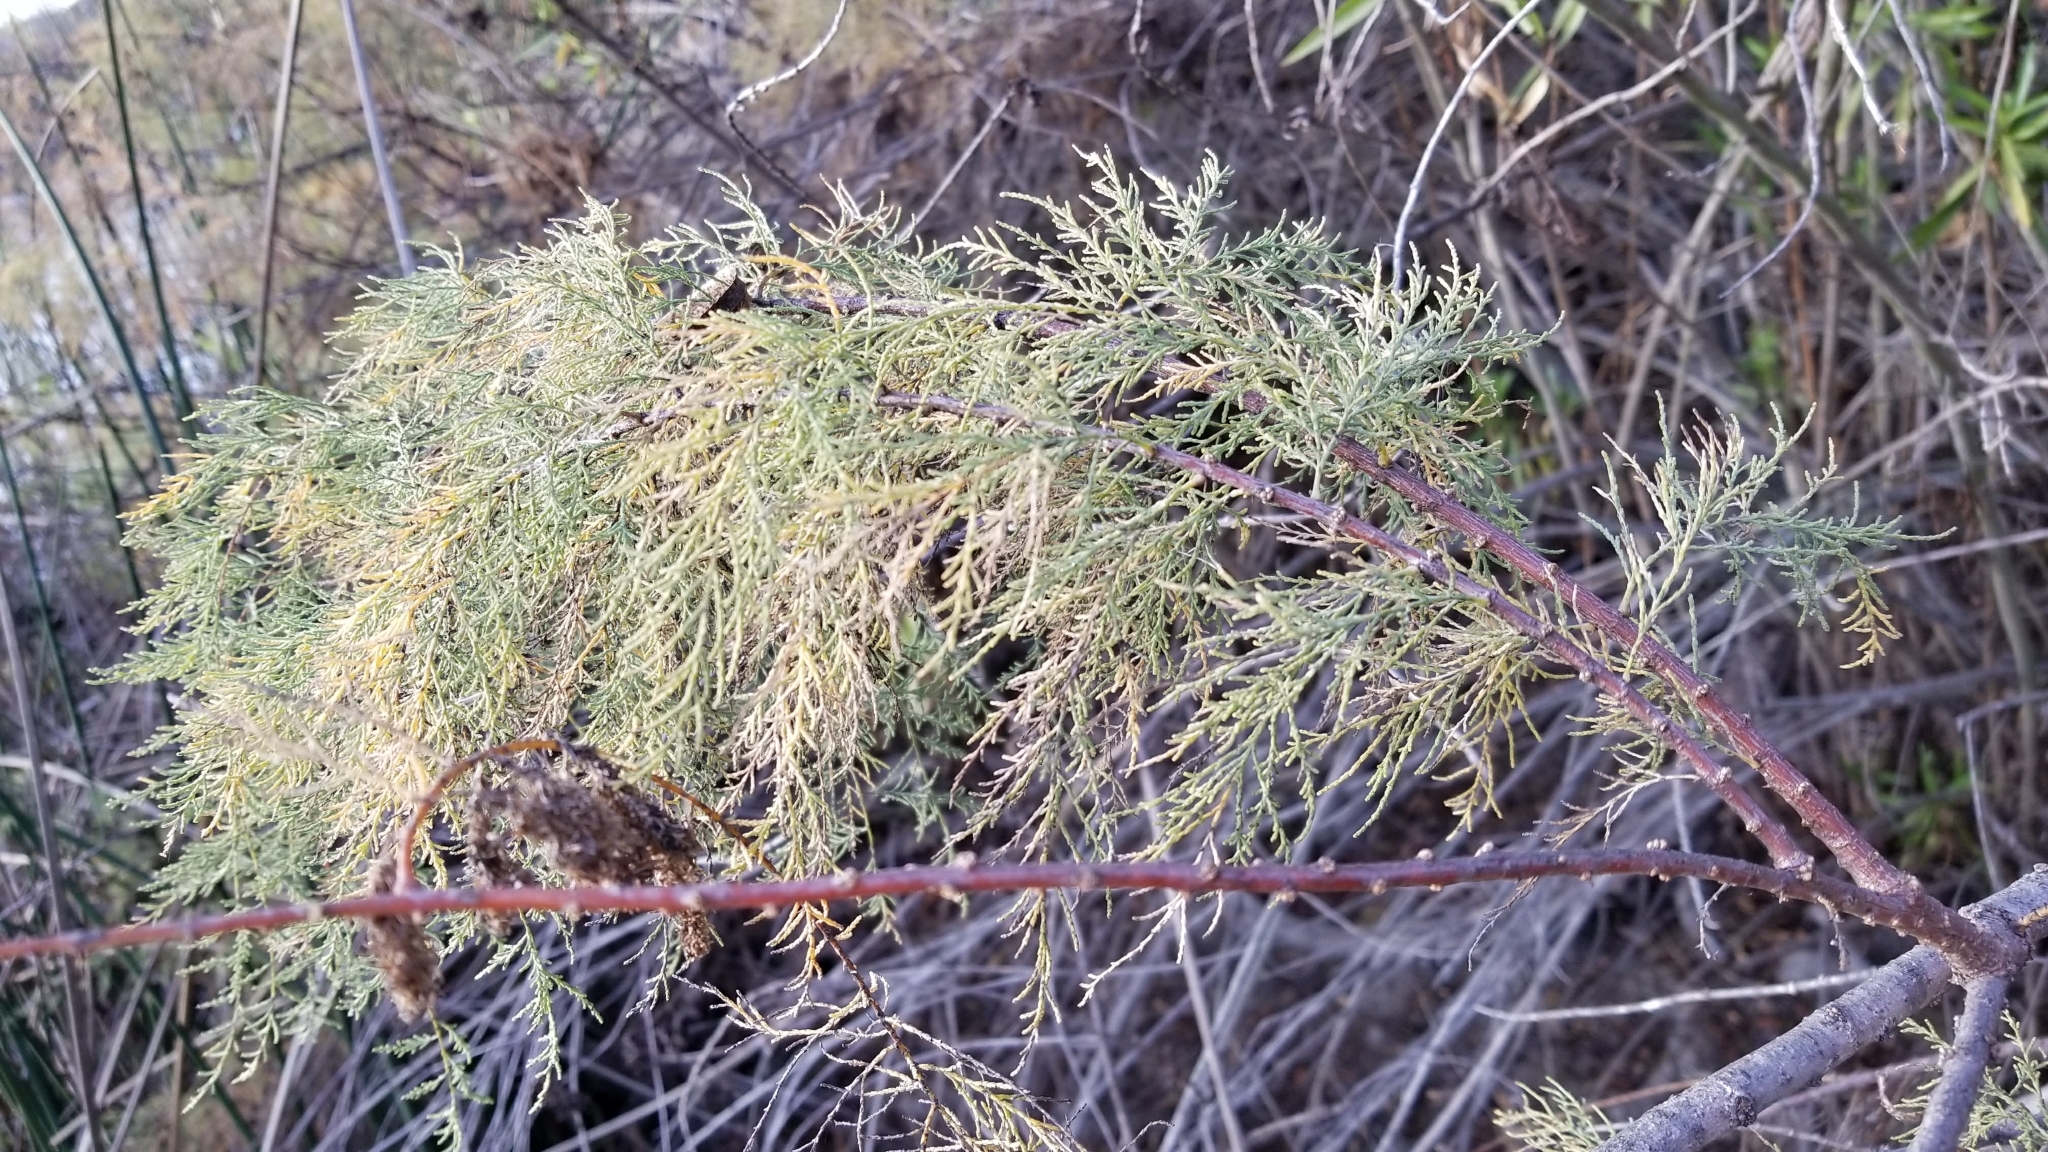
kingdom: Plantae
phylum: Tracheophyta
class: Magnoliopsida
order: Caryophyllales
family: Tamaricaceae
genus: Tamarix
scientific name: Tamarix
